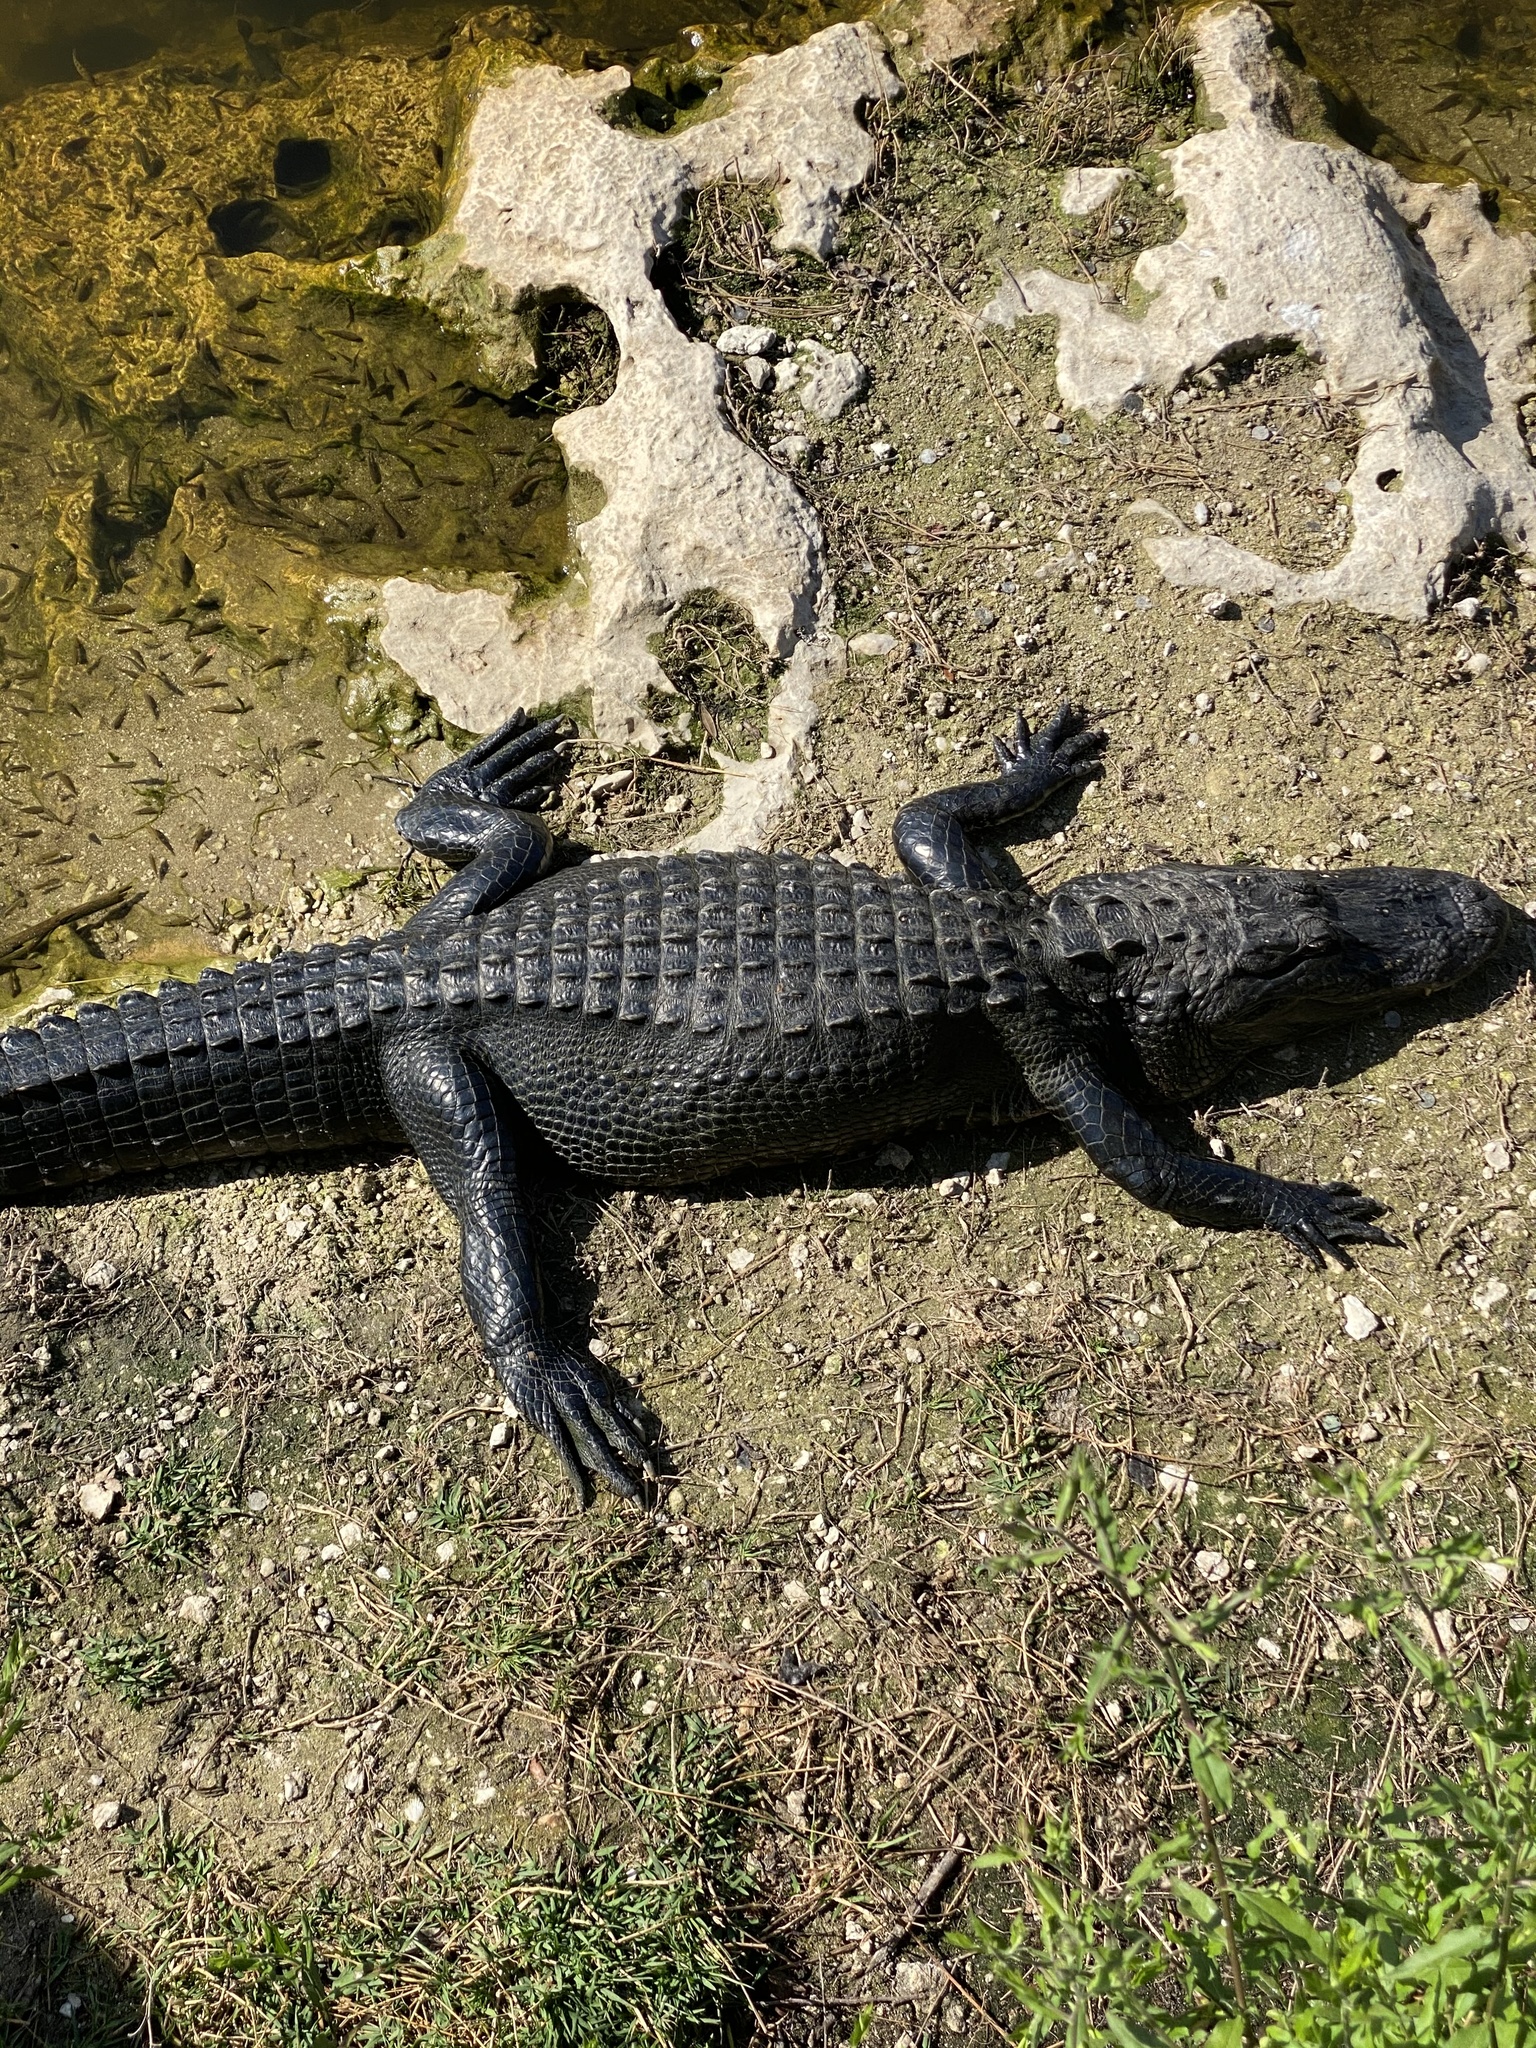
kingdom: Animalia
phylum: Chordata
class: Crocodylia
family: Alligatoridae
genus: Alligator
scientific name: Alligator mississippiensis
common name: American alligator
